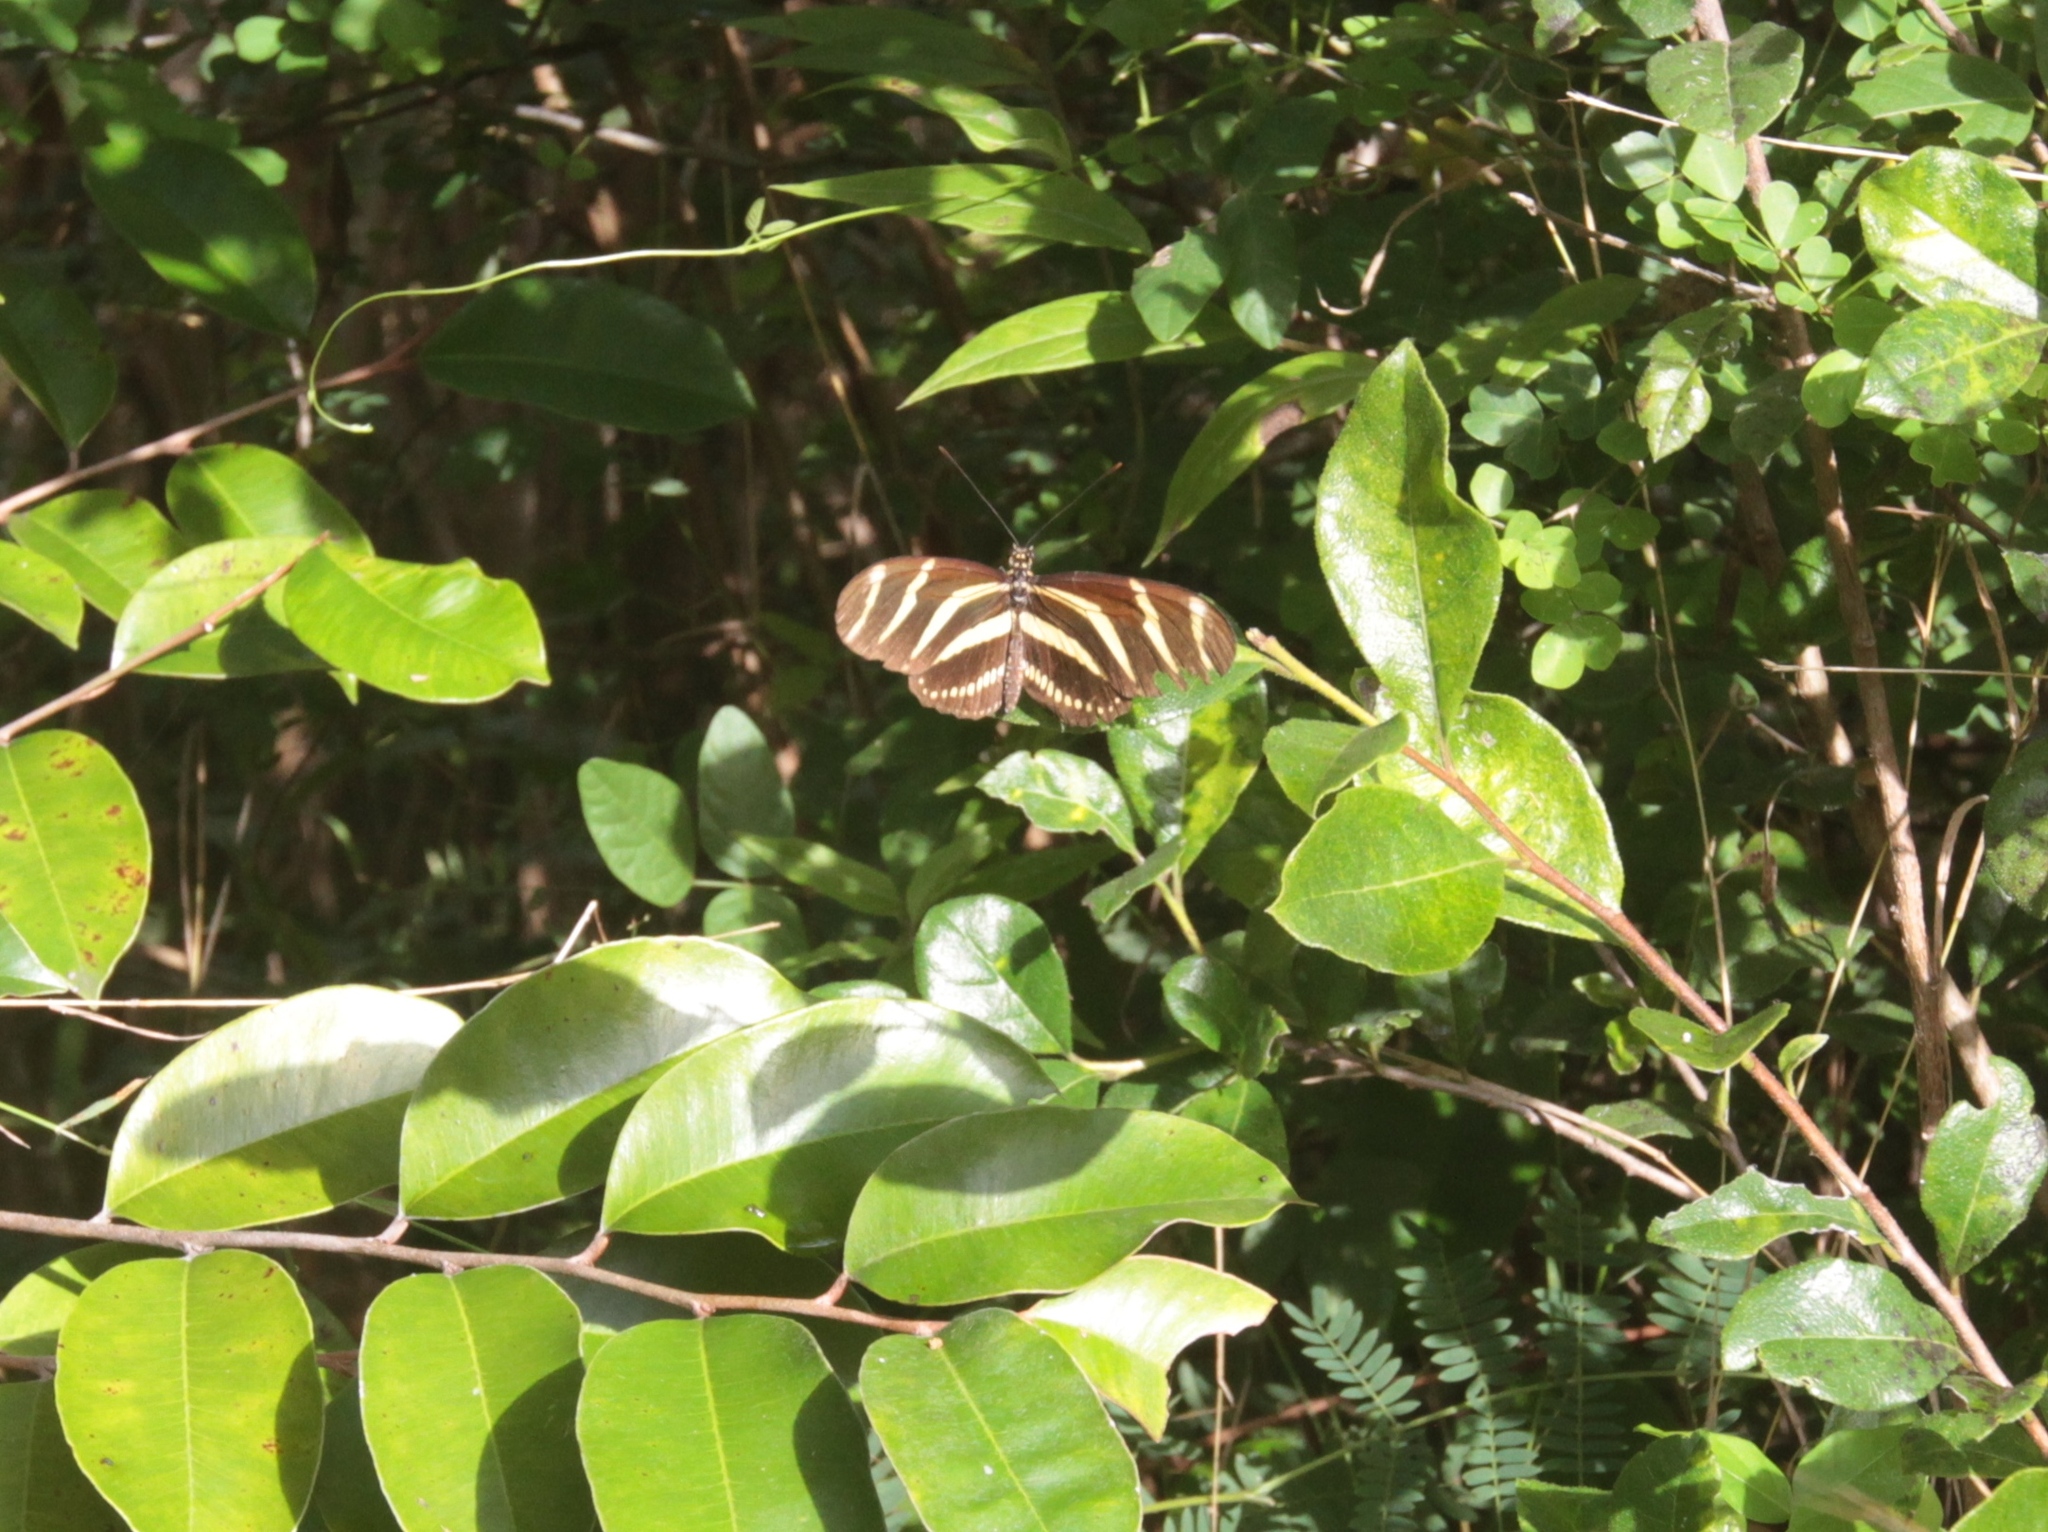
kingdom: Animalia
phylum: Arthropoda
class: Insecta
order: Lepidoptera
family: Nymphalidae
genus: Heliconius
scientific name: Heliconius charithonia
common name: Zebra long wing
